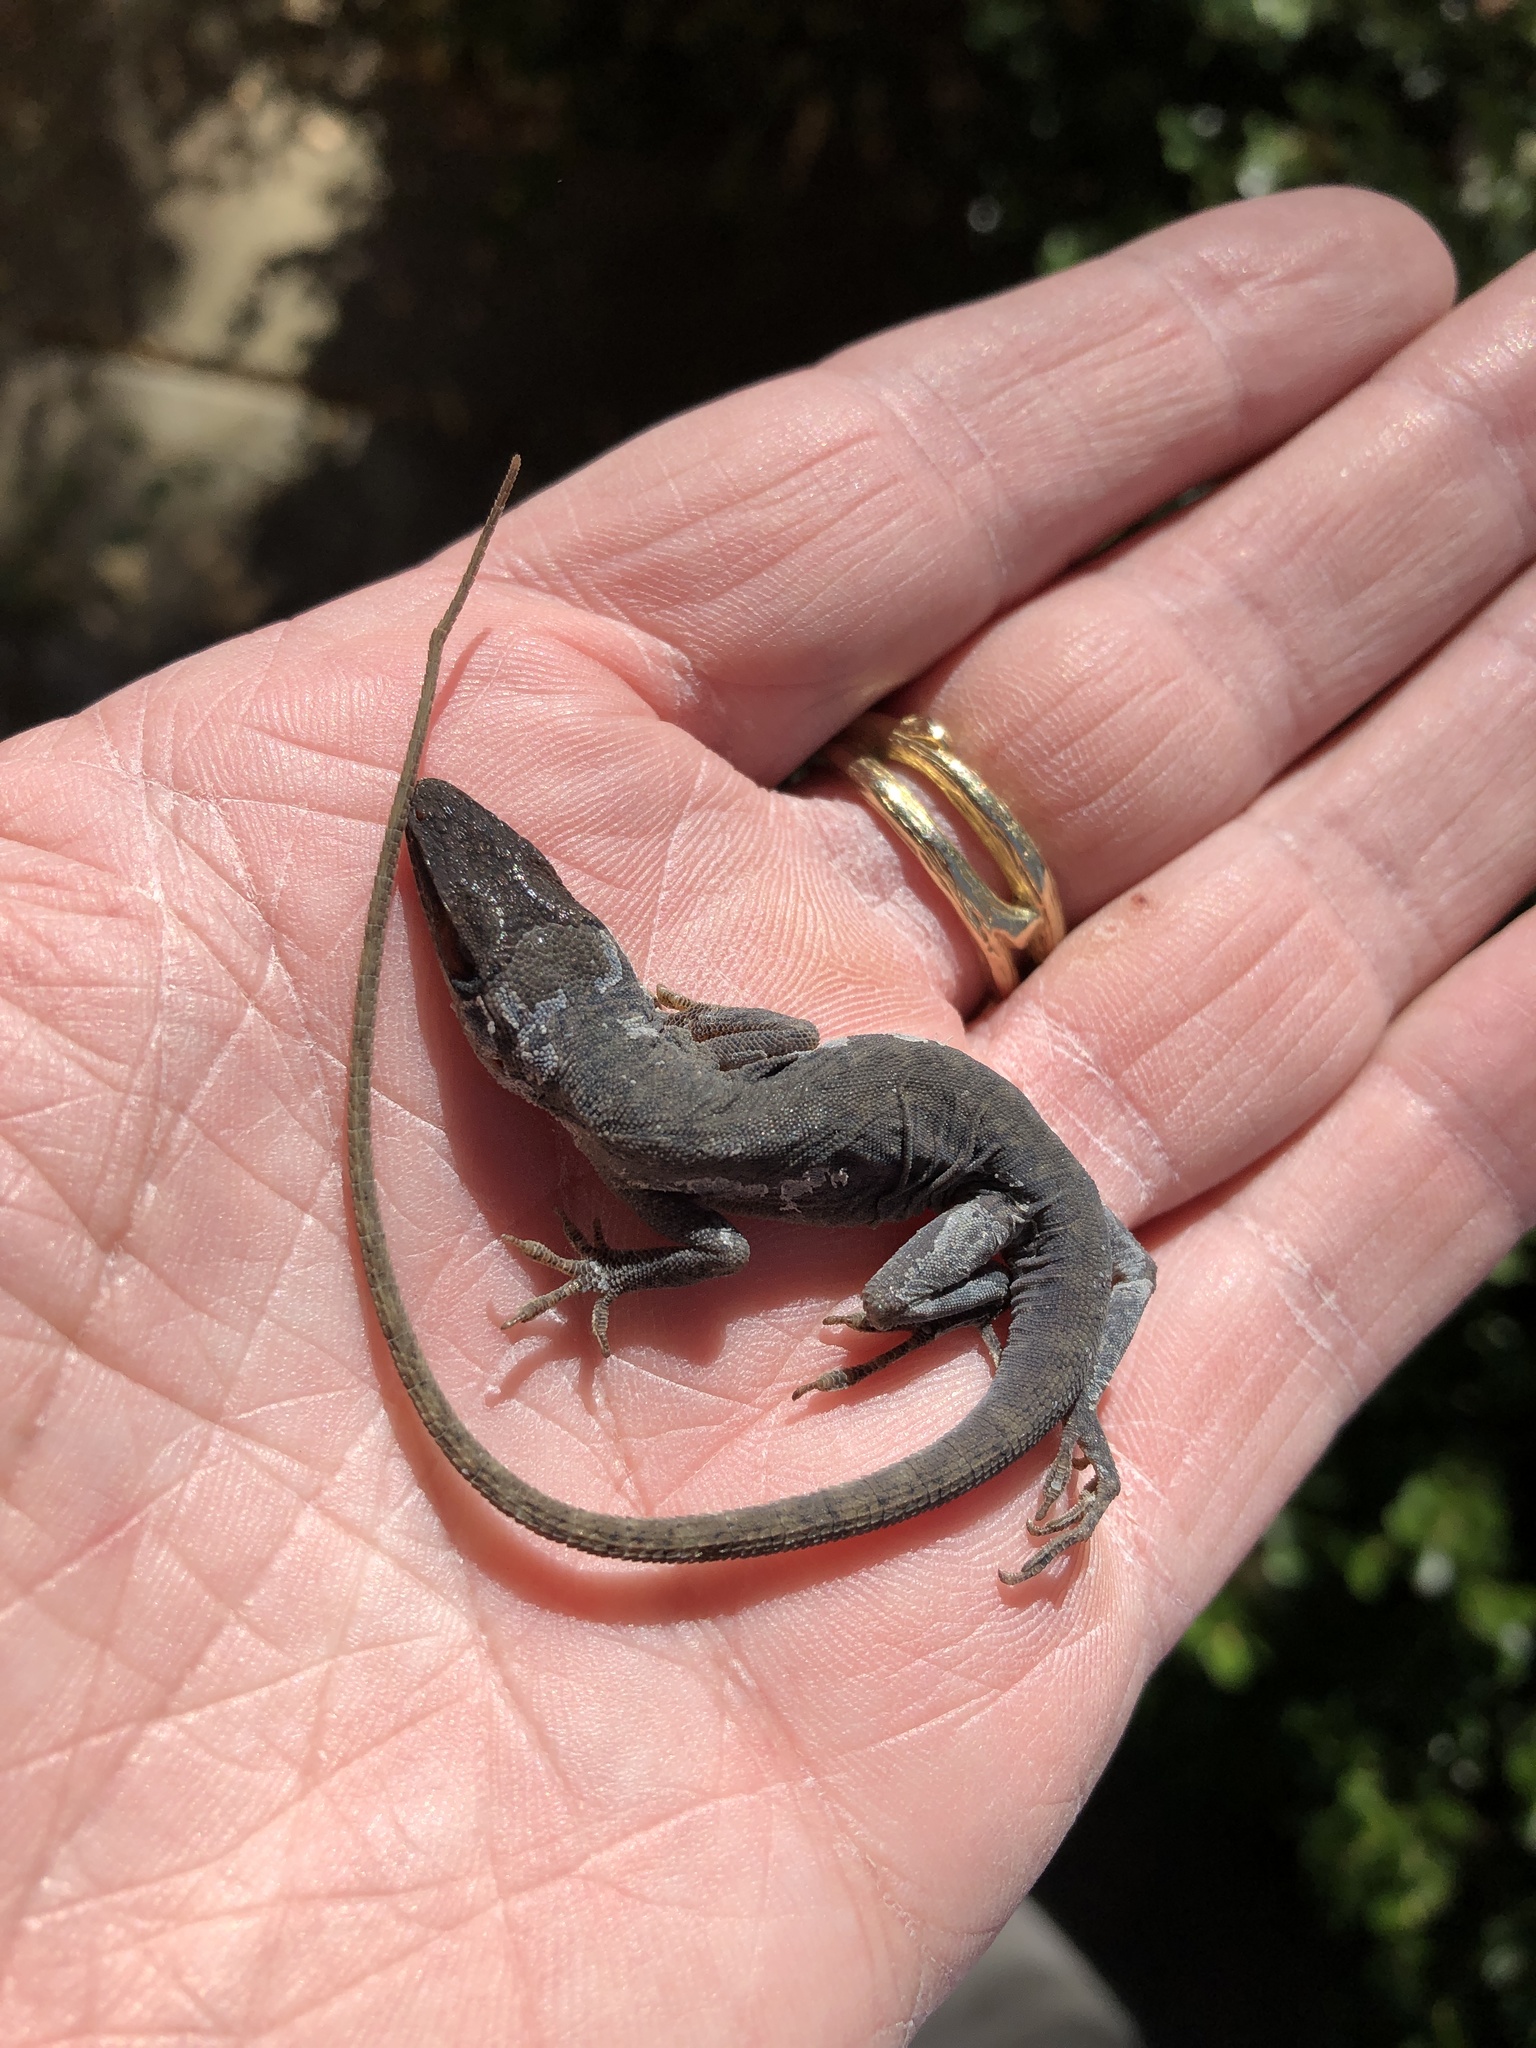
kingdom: Animalia
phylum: Chordata
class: Squamata
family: Dactyloidae
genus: Anolis
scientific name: Anolis carolinensis
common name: Green anole
